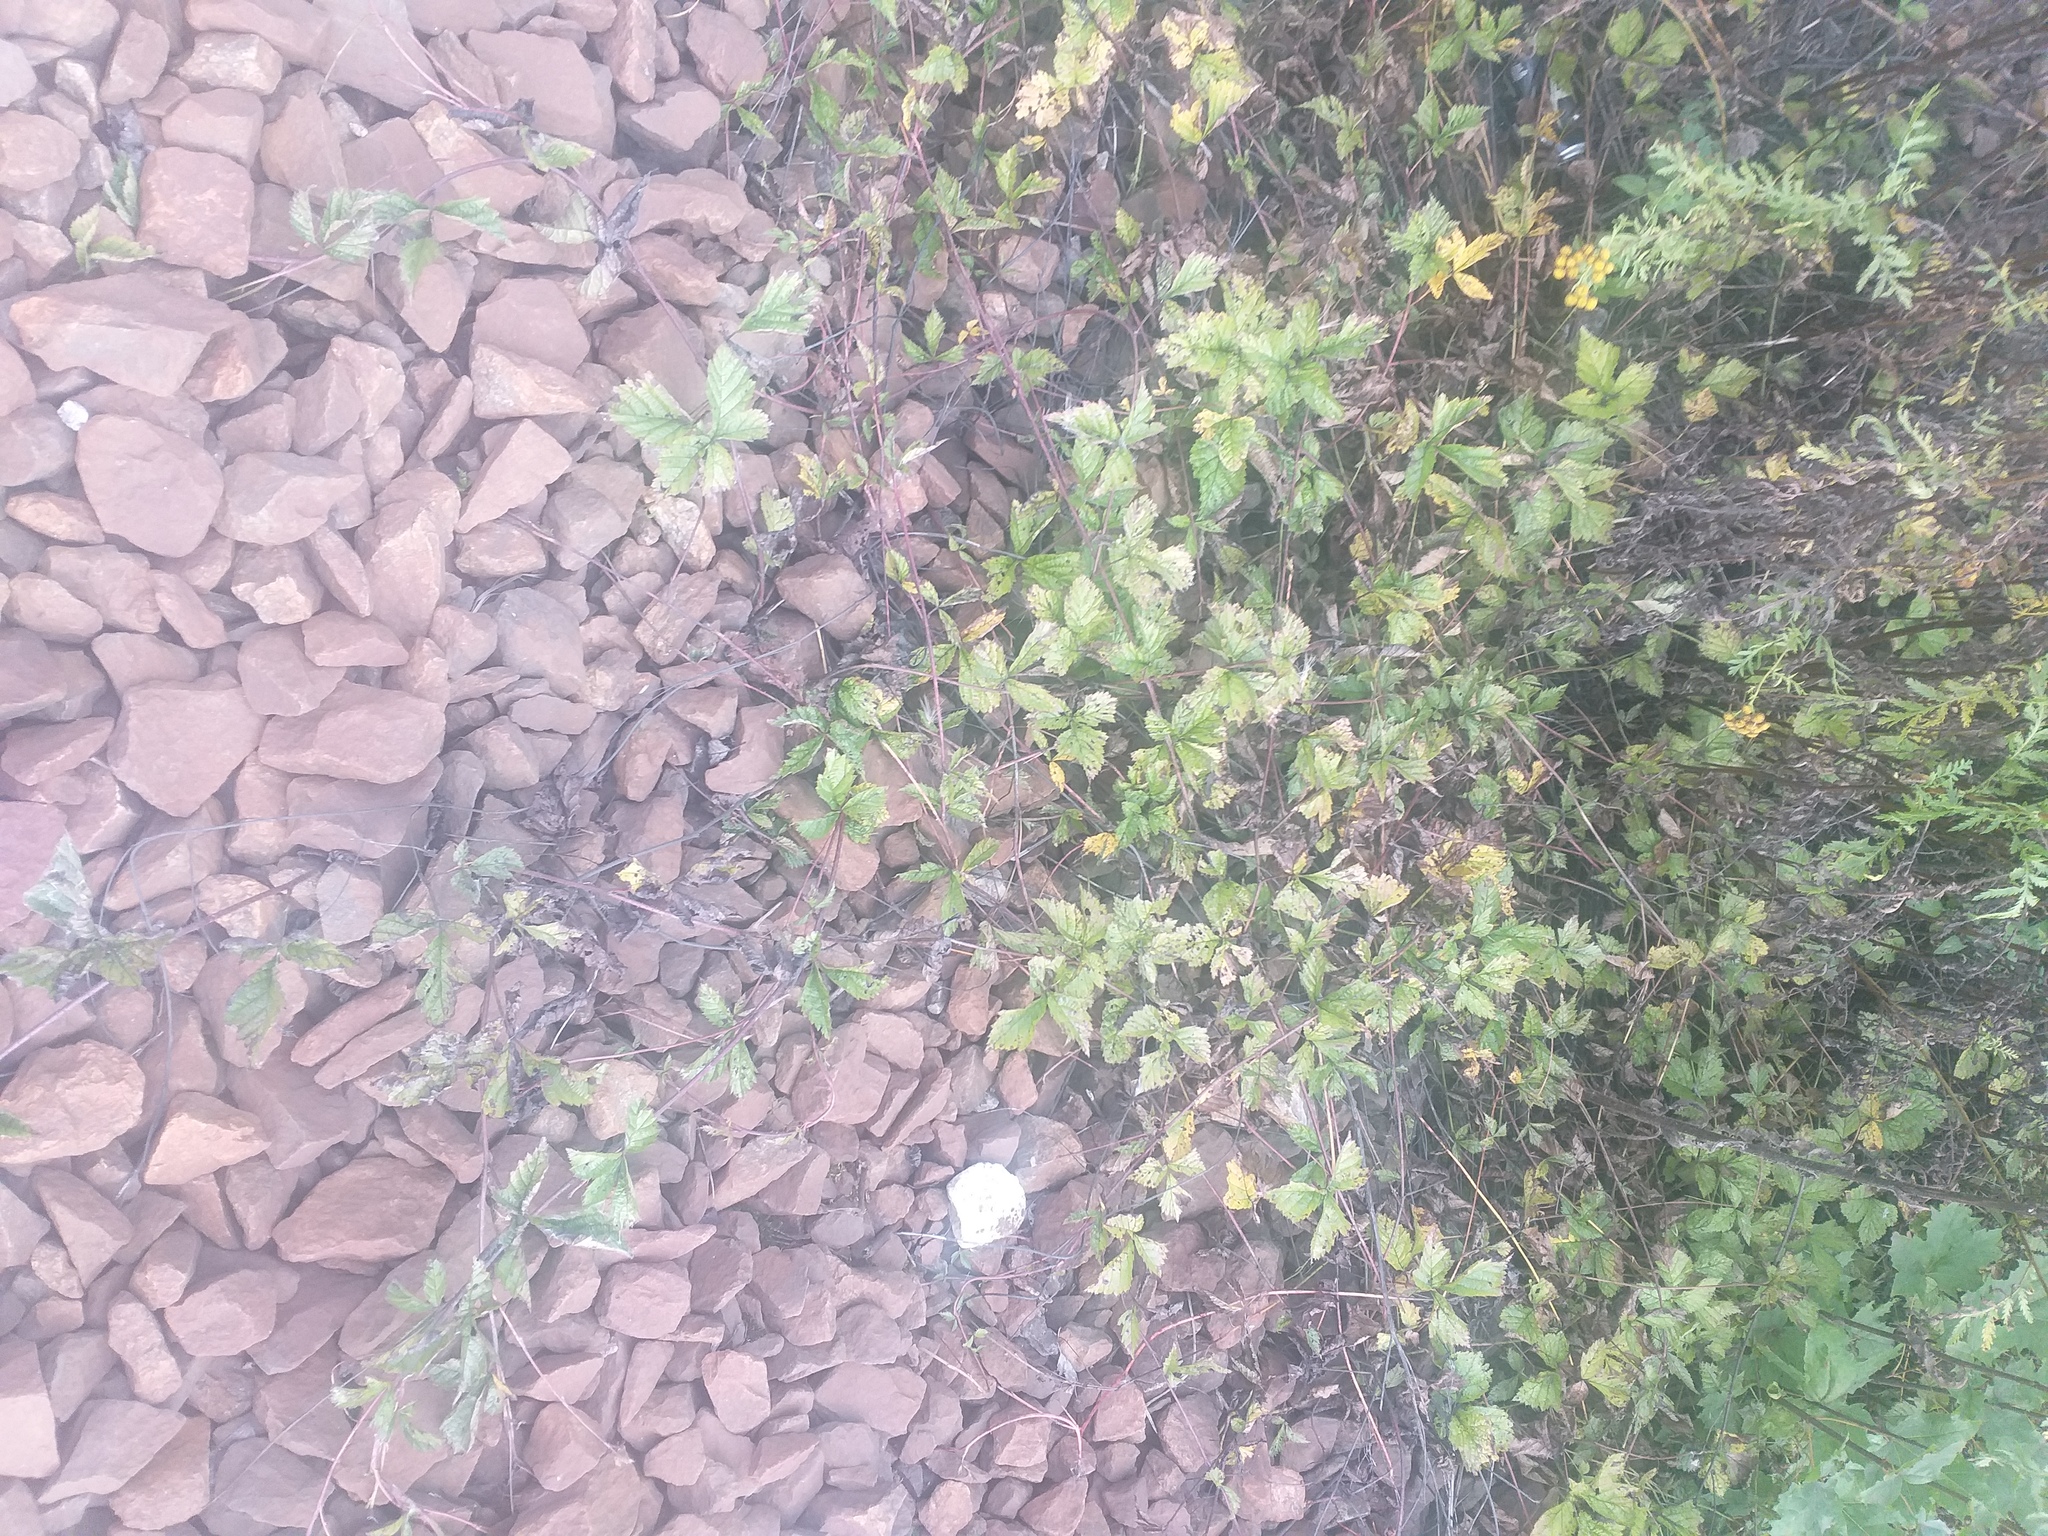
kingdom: Plantae
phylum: Tracheophyta
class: Magnoliopsida
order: Rosales
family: Rosaceae
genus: Rubus
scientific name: Rubus saxatilis
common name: Stone bramble
